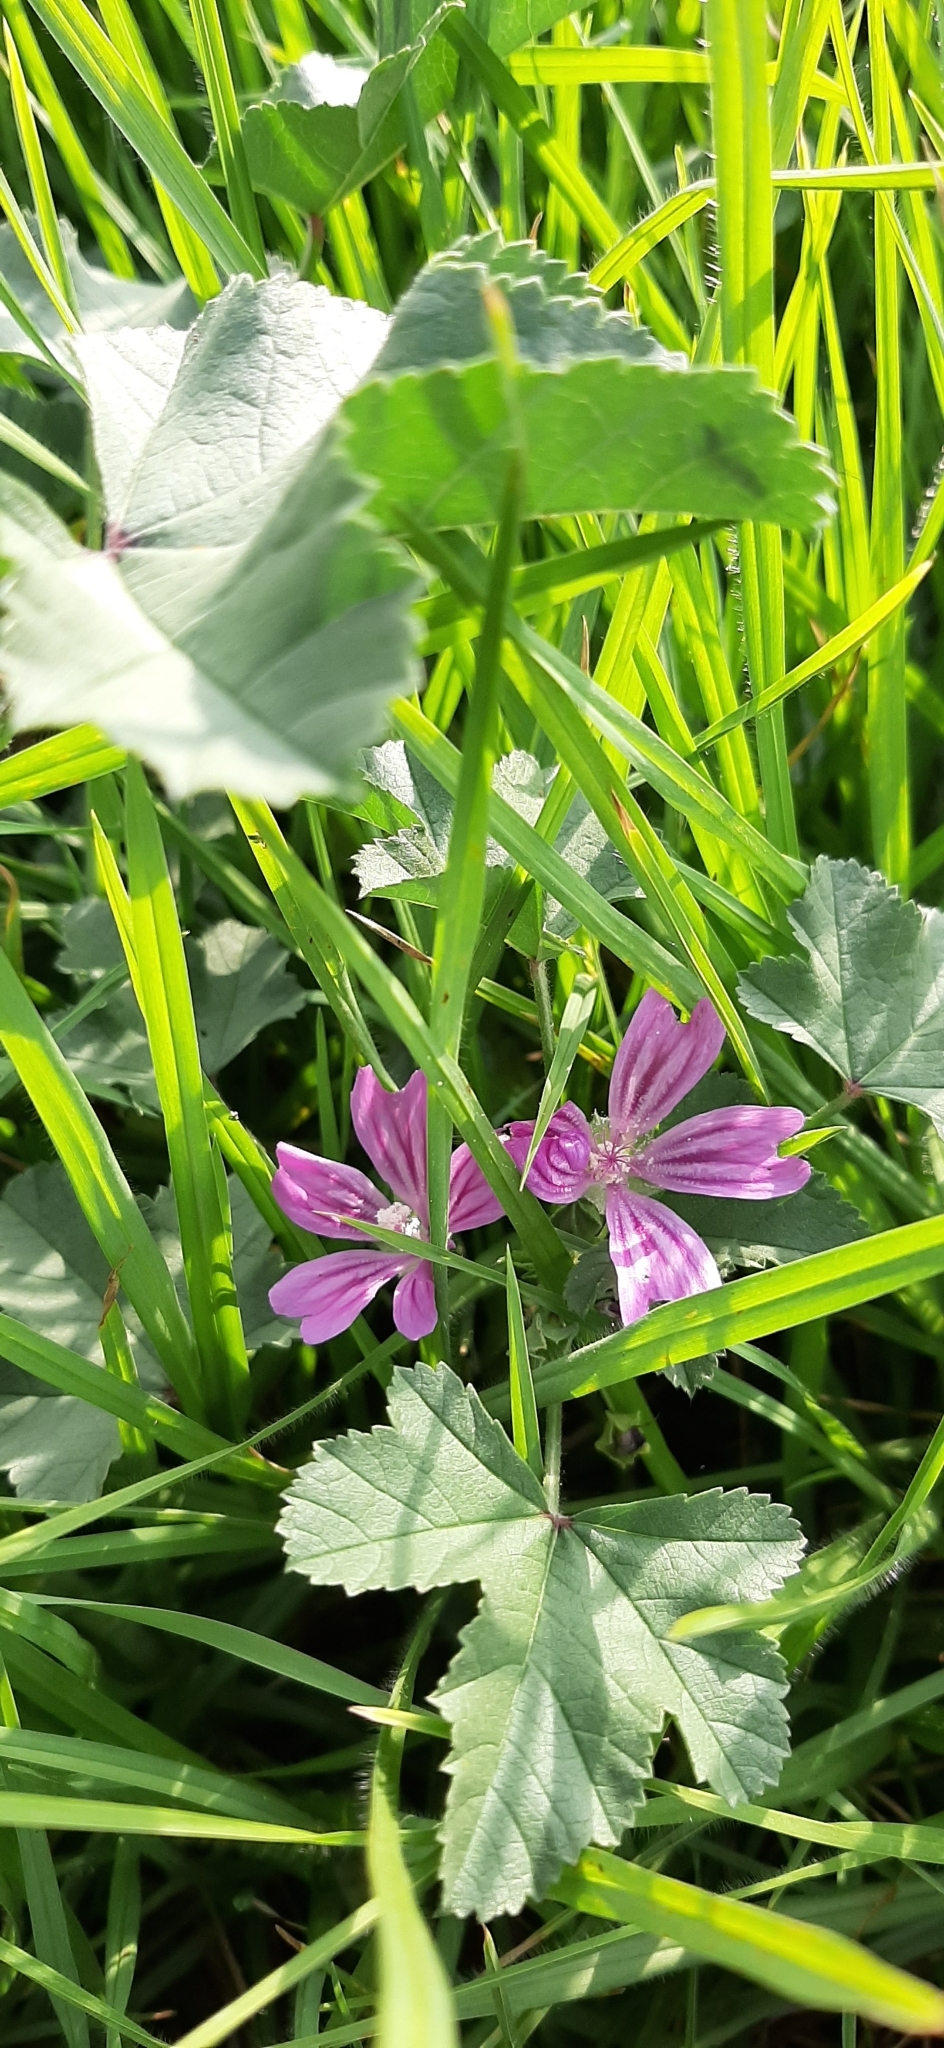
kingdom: Plantae
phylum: Tracheophyta
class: Magnoliopsida
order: Malvales
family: Malvaceae
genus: Malva
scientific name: Malva multiflora
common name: Cheeseweed
